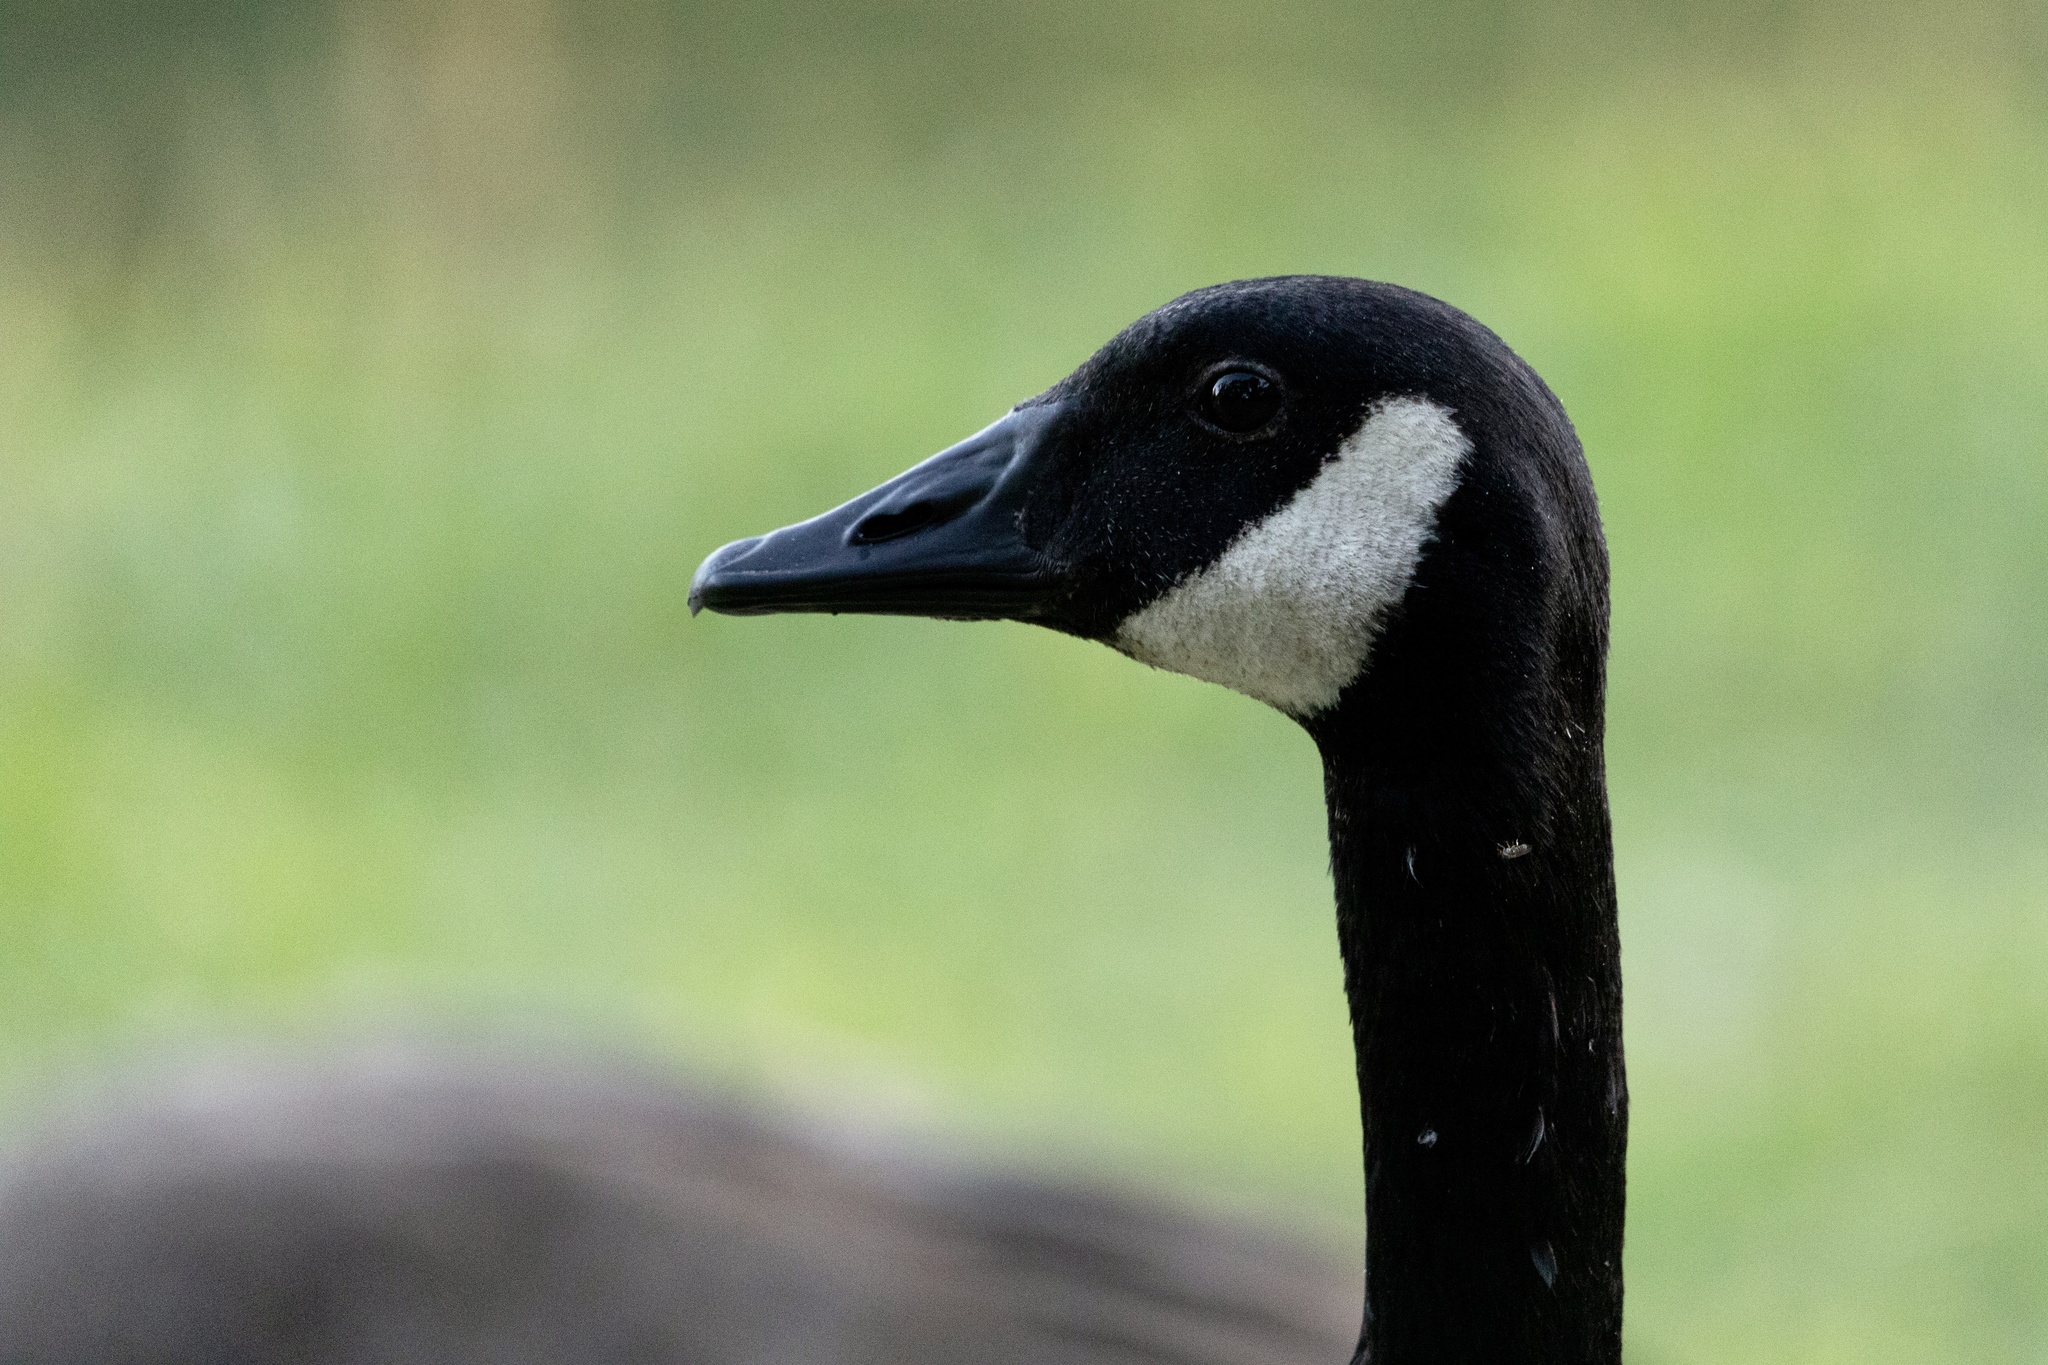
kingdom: Animalia
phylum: Chordata
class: Aves
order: Anseriformes
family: Anatidae
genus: Branta
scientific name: Branta canadensis
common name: Canada goose
